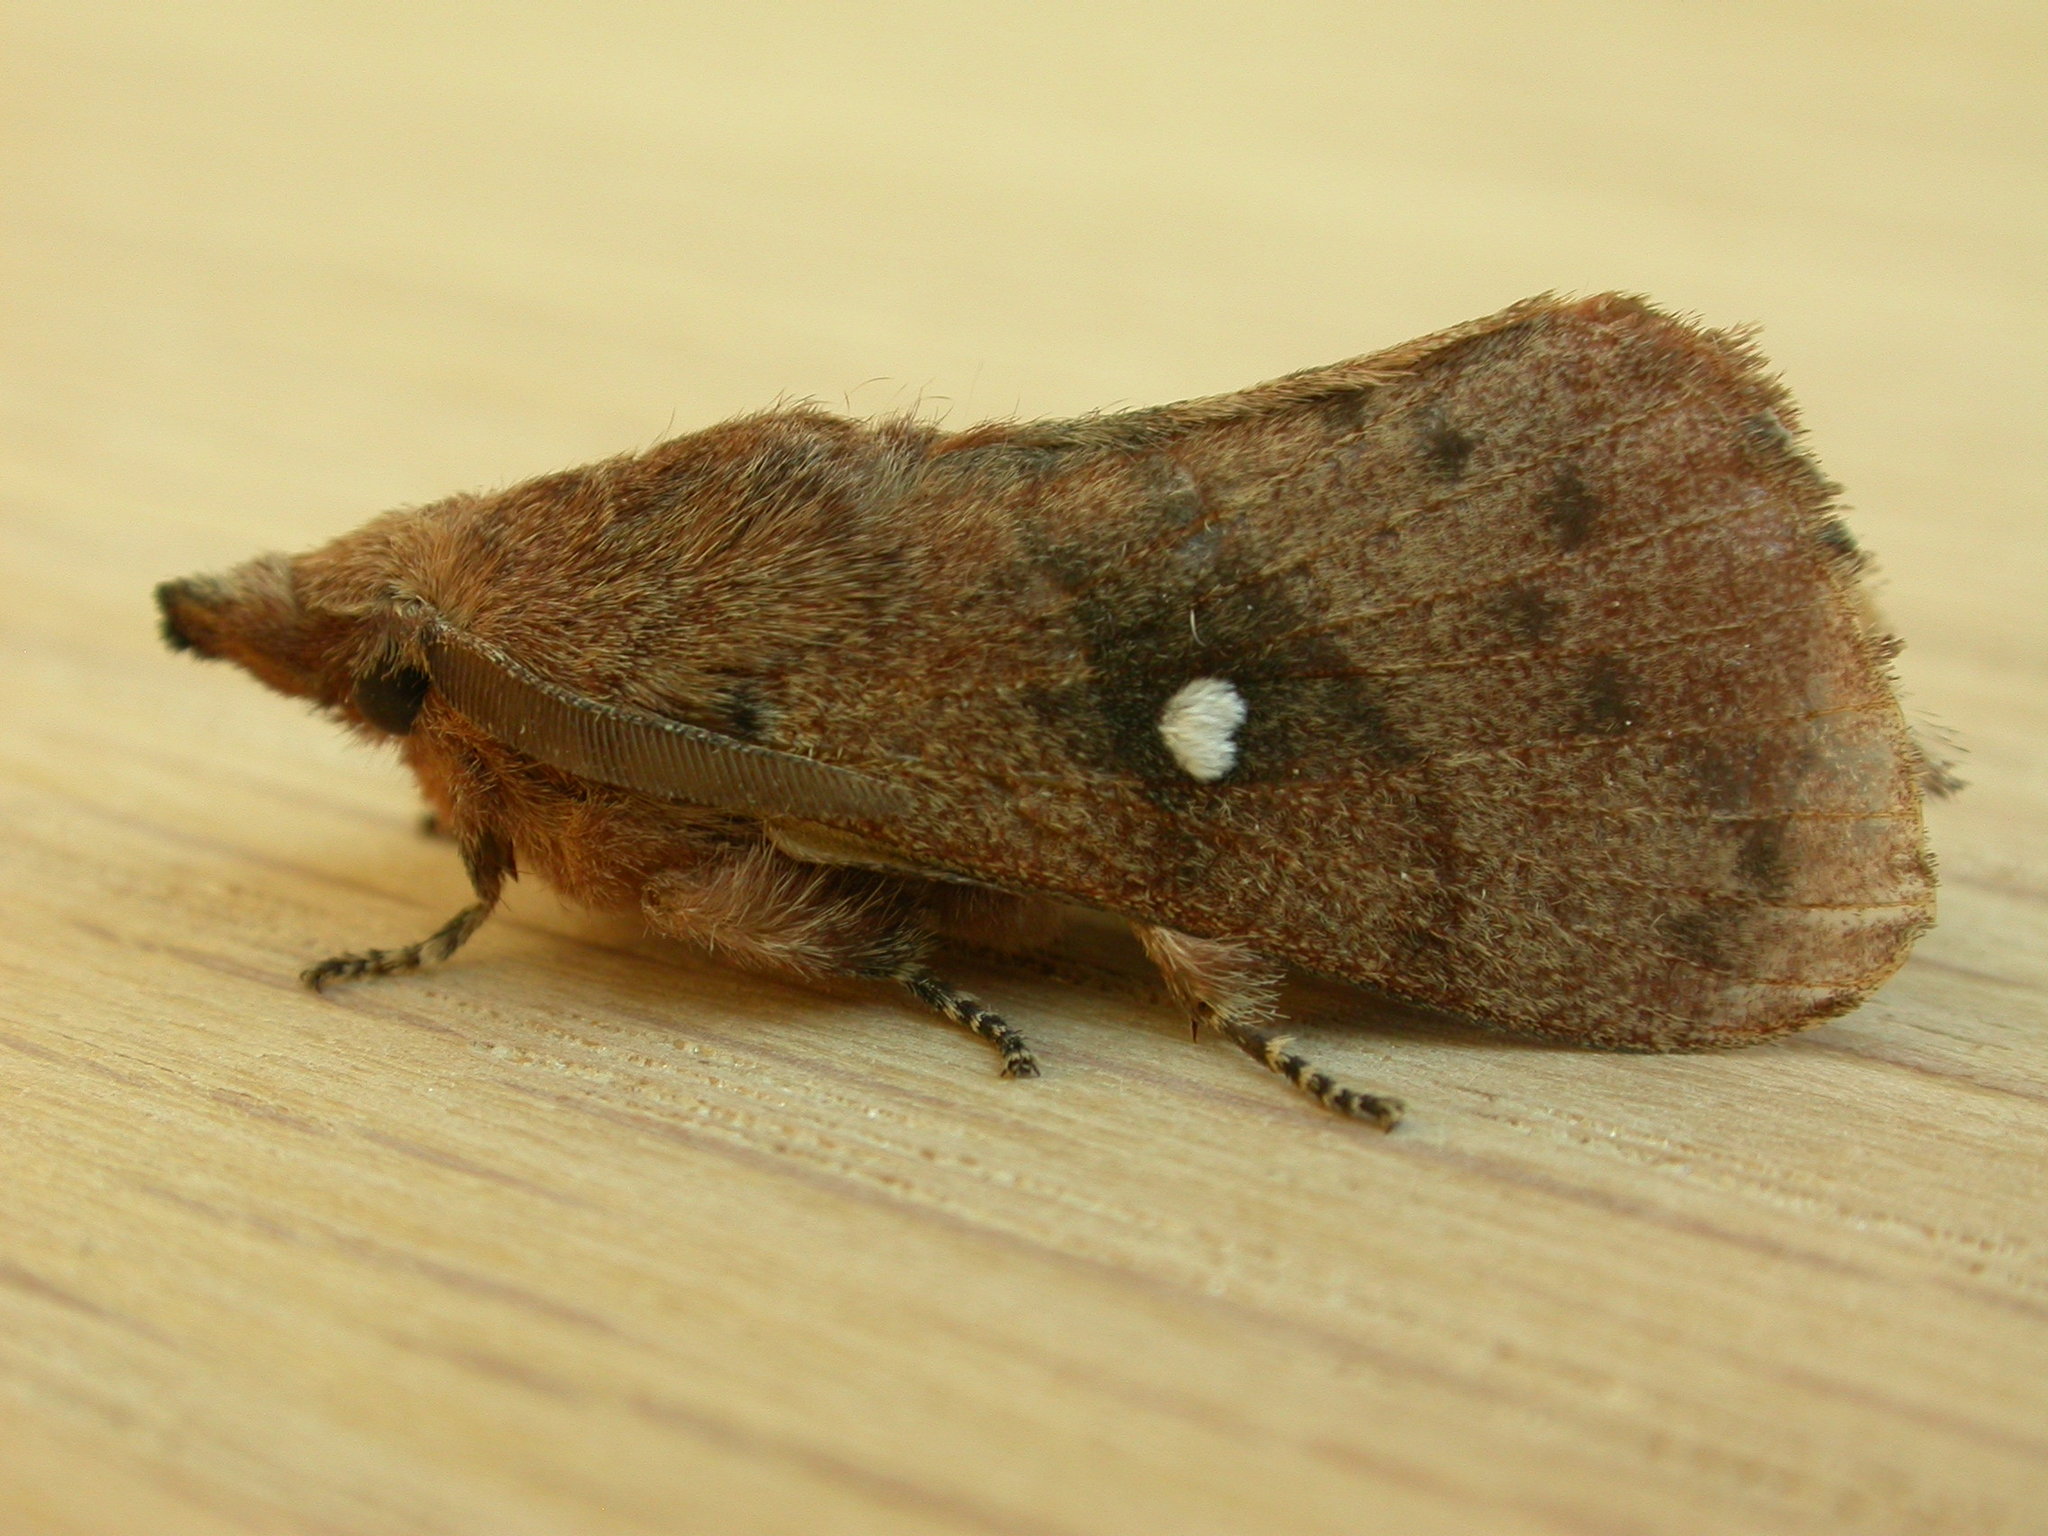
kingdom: Animalia
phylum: Arthropoda
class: Insecta
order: Lepidoptera
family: Lasiocampidae
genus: Opsirhina
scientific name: Opsirhina lechriodes
